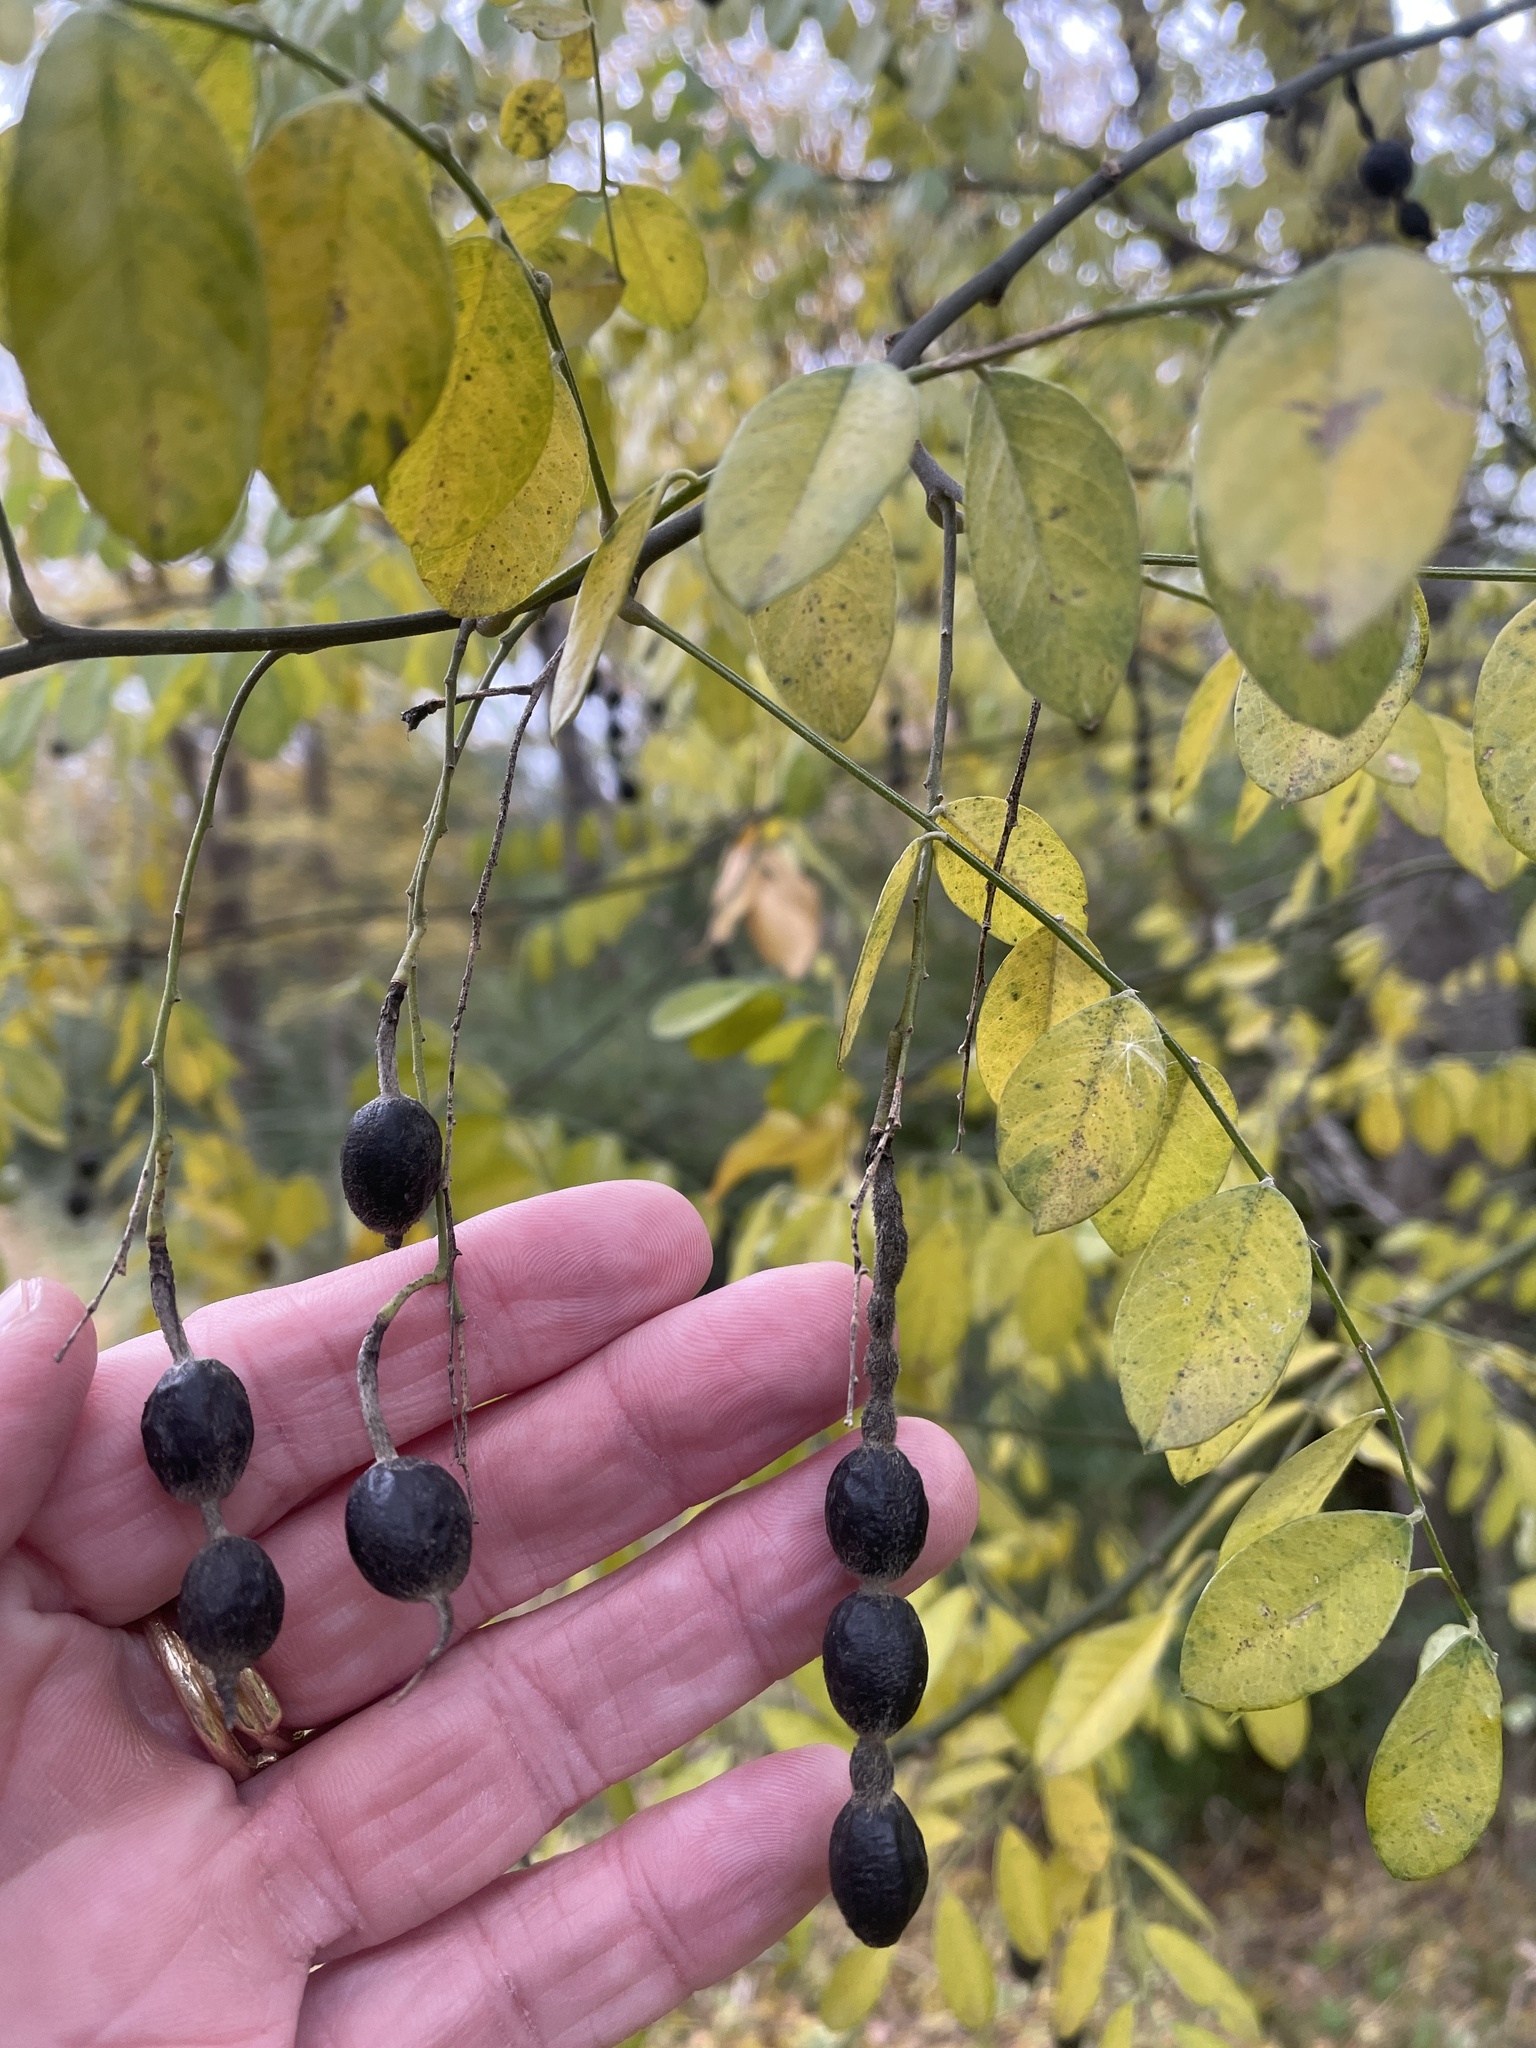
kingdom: Plantae
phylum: Tracheophyta
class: Magnoliopsida
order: Fabales
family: Fabaceae
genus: Styphnolobium
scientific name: Styphnolobium affine
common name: Texas sophora
